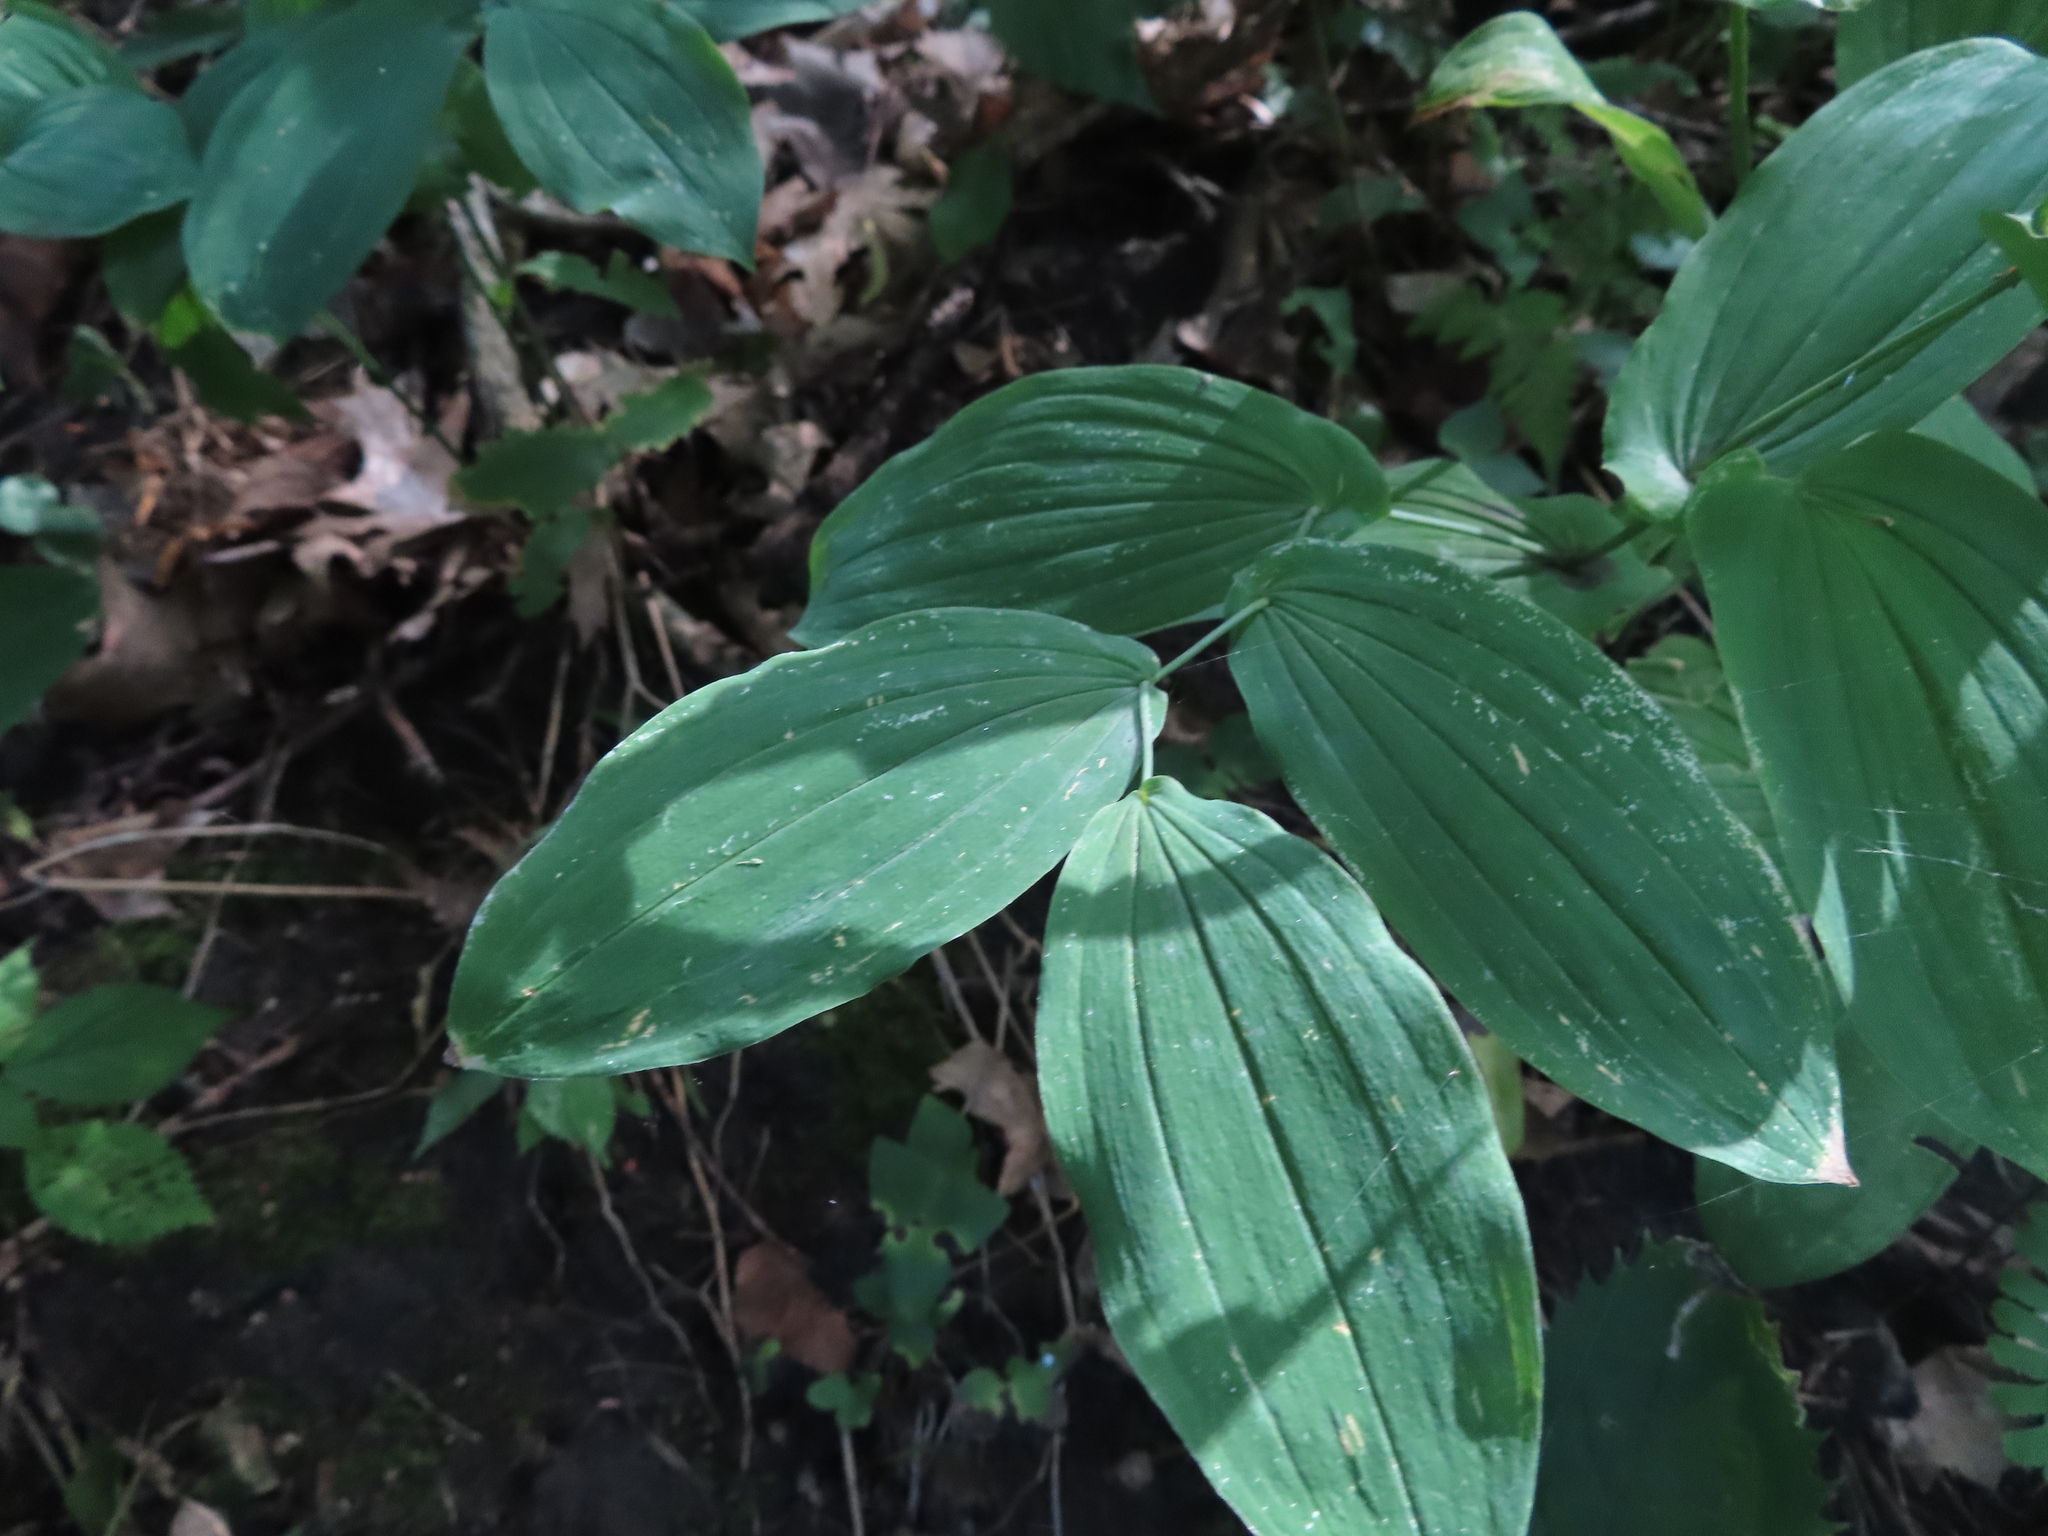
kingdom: Plantae
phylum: Tracheophyta
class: Liliopsida
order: Liliales
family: Colchicaceae
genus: Uvularia
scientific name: Uvularia grandiflora
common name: Bellwort
